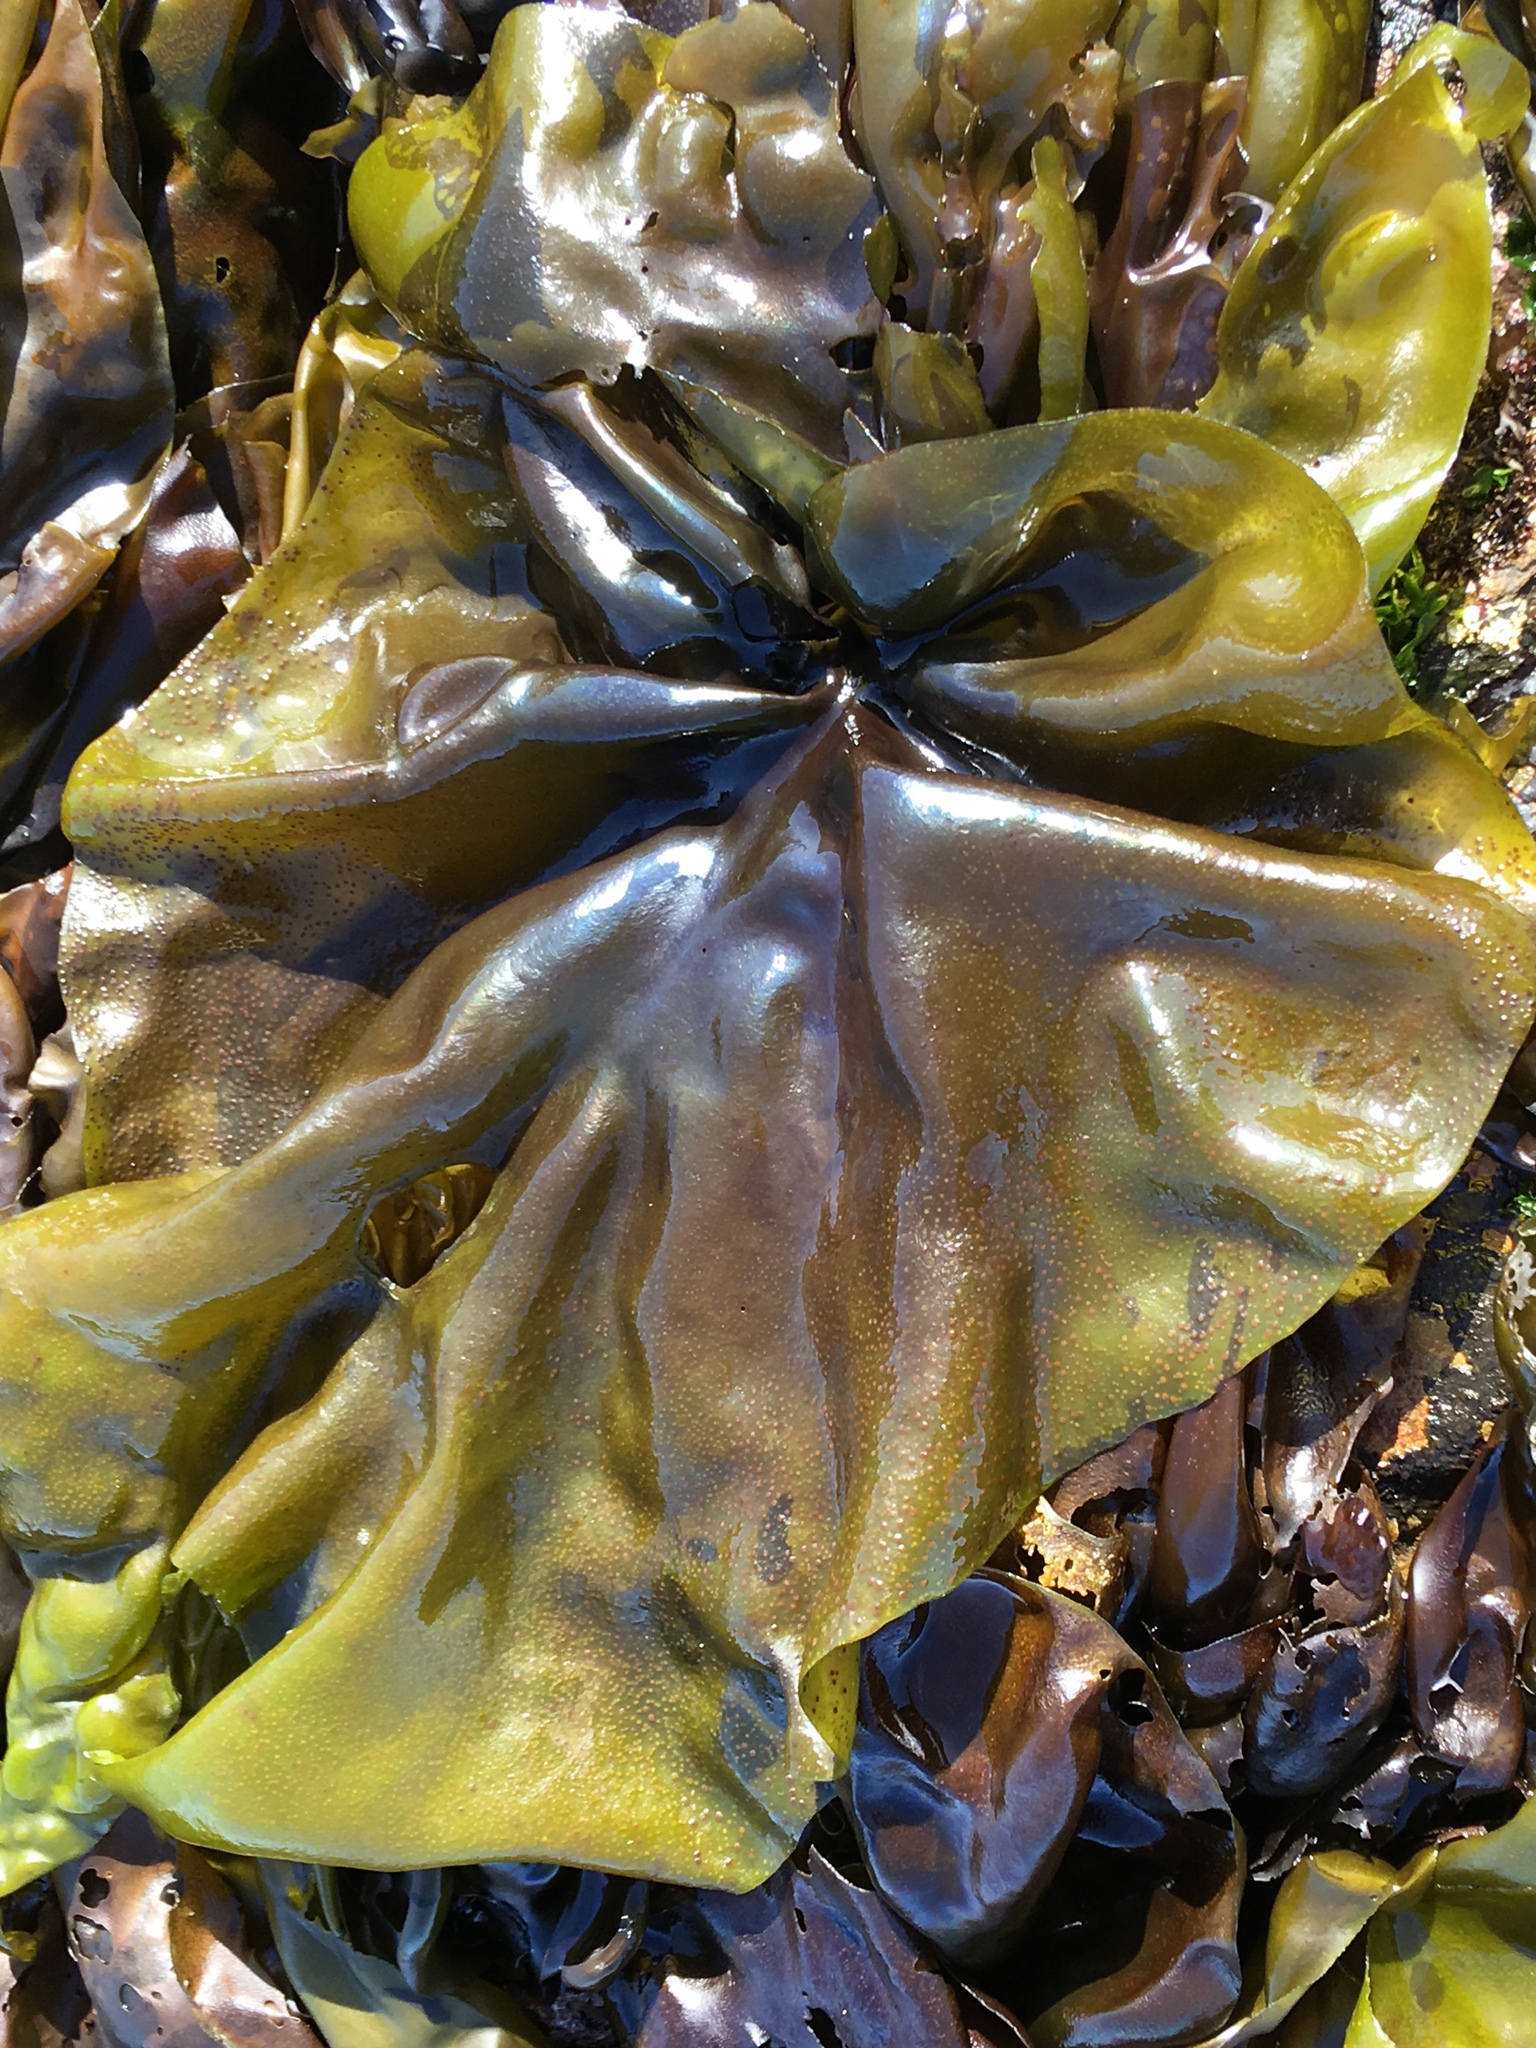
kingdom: Plantae
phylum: Rhodophyta
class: Florideophyceae
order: Gigartinales
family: Gigartinaceae
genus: Mazzaella
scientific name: Mazzaella flaccida
